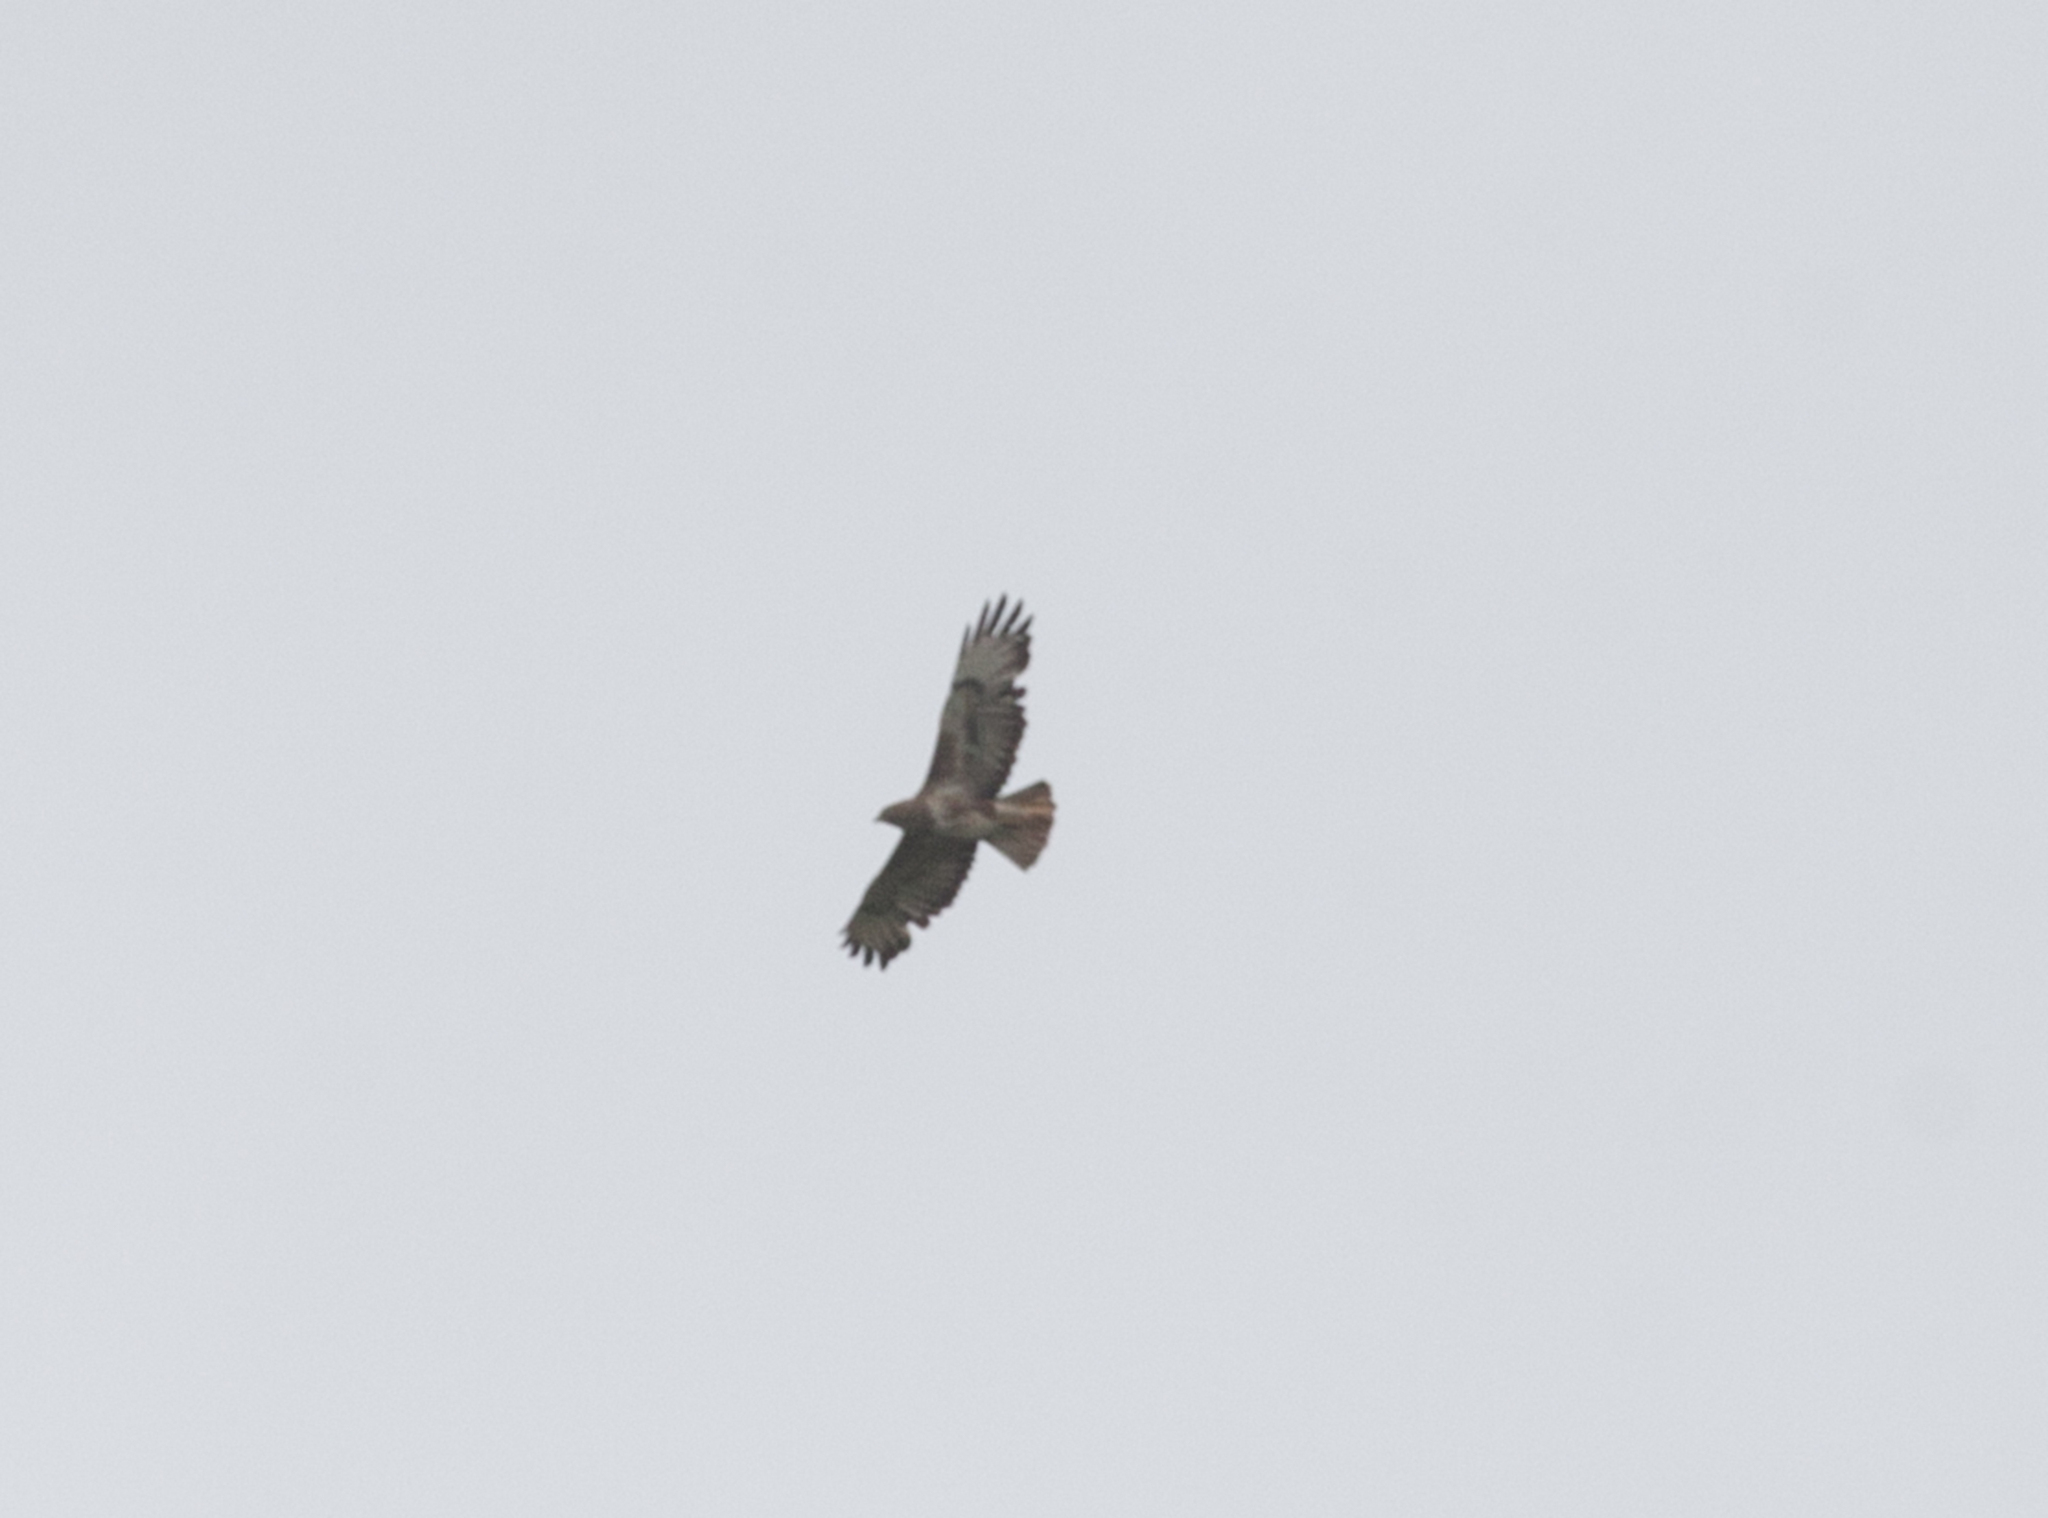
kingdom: Animalia
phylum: Chordata
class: Aves
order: Accipitriformes
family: Accipitridae
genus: Buteo
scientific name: Buteo buteo
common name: Common buzzard
